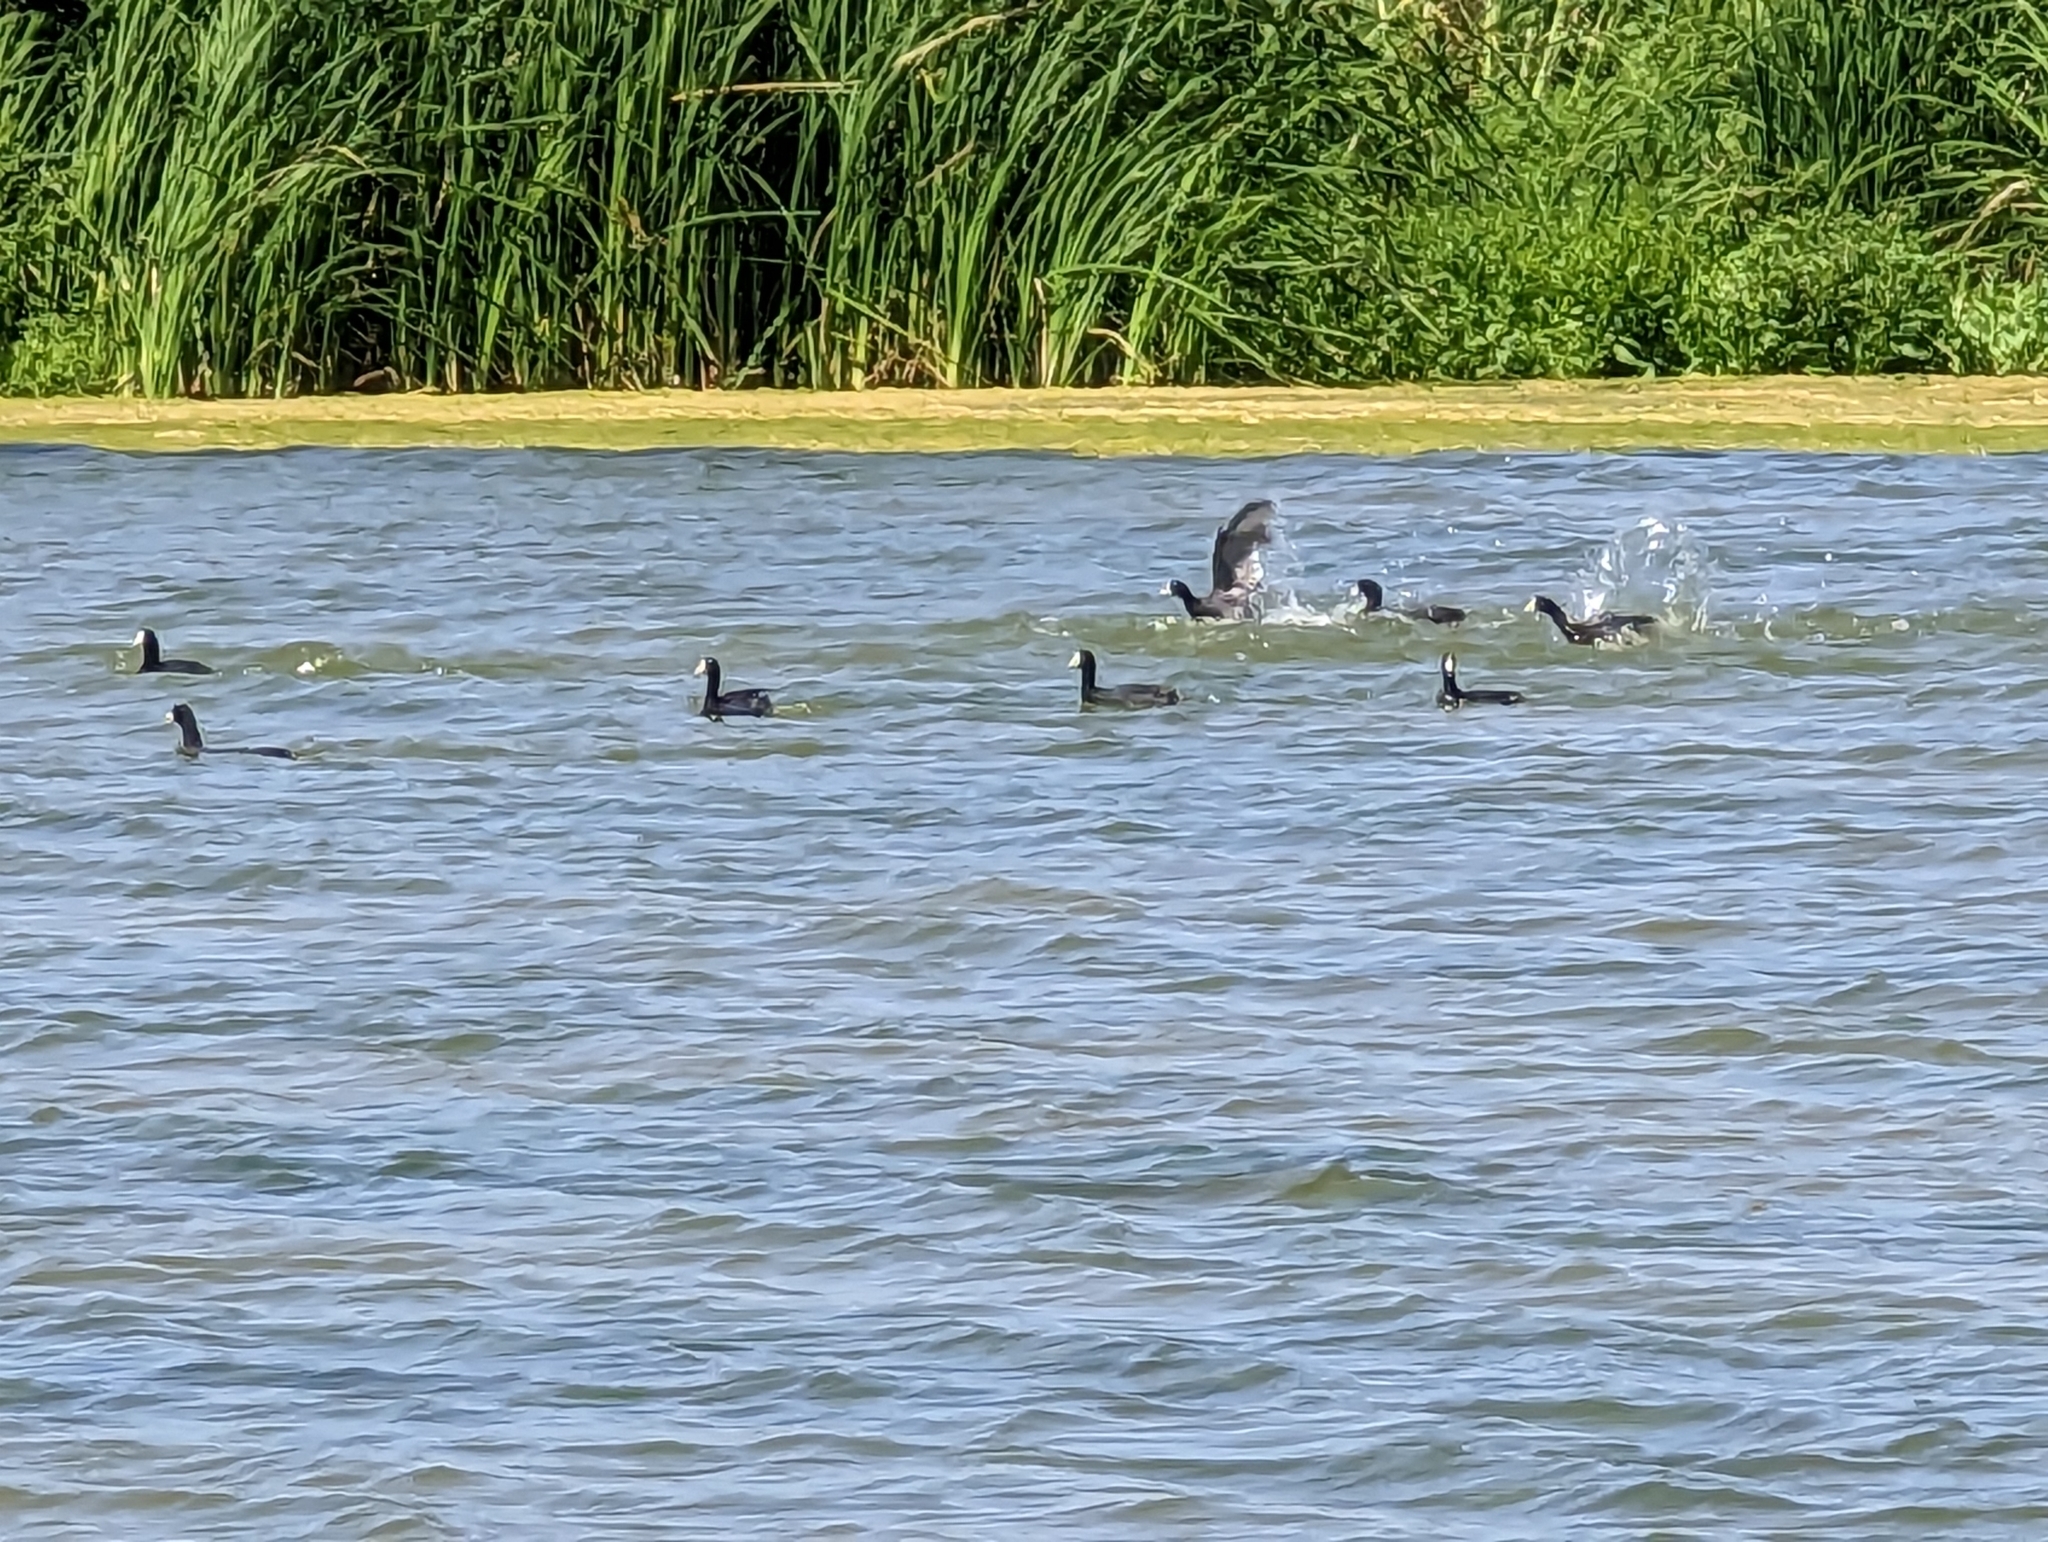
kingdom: Animalia
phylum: Chordata
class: Aves
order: Gruiformes
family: Rallidae
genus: Fulica
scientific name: Fulica americana
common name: American coot
